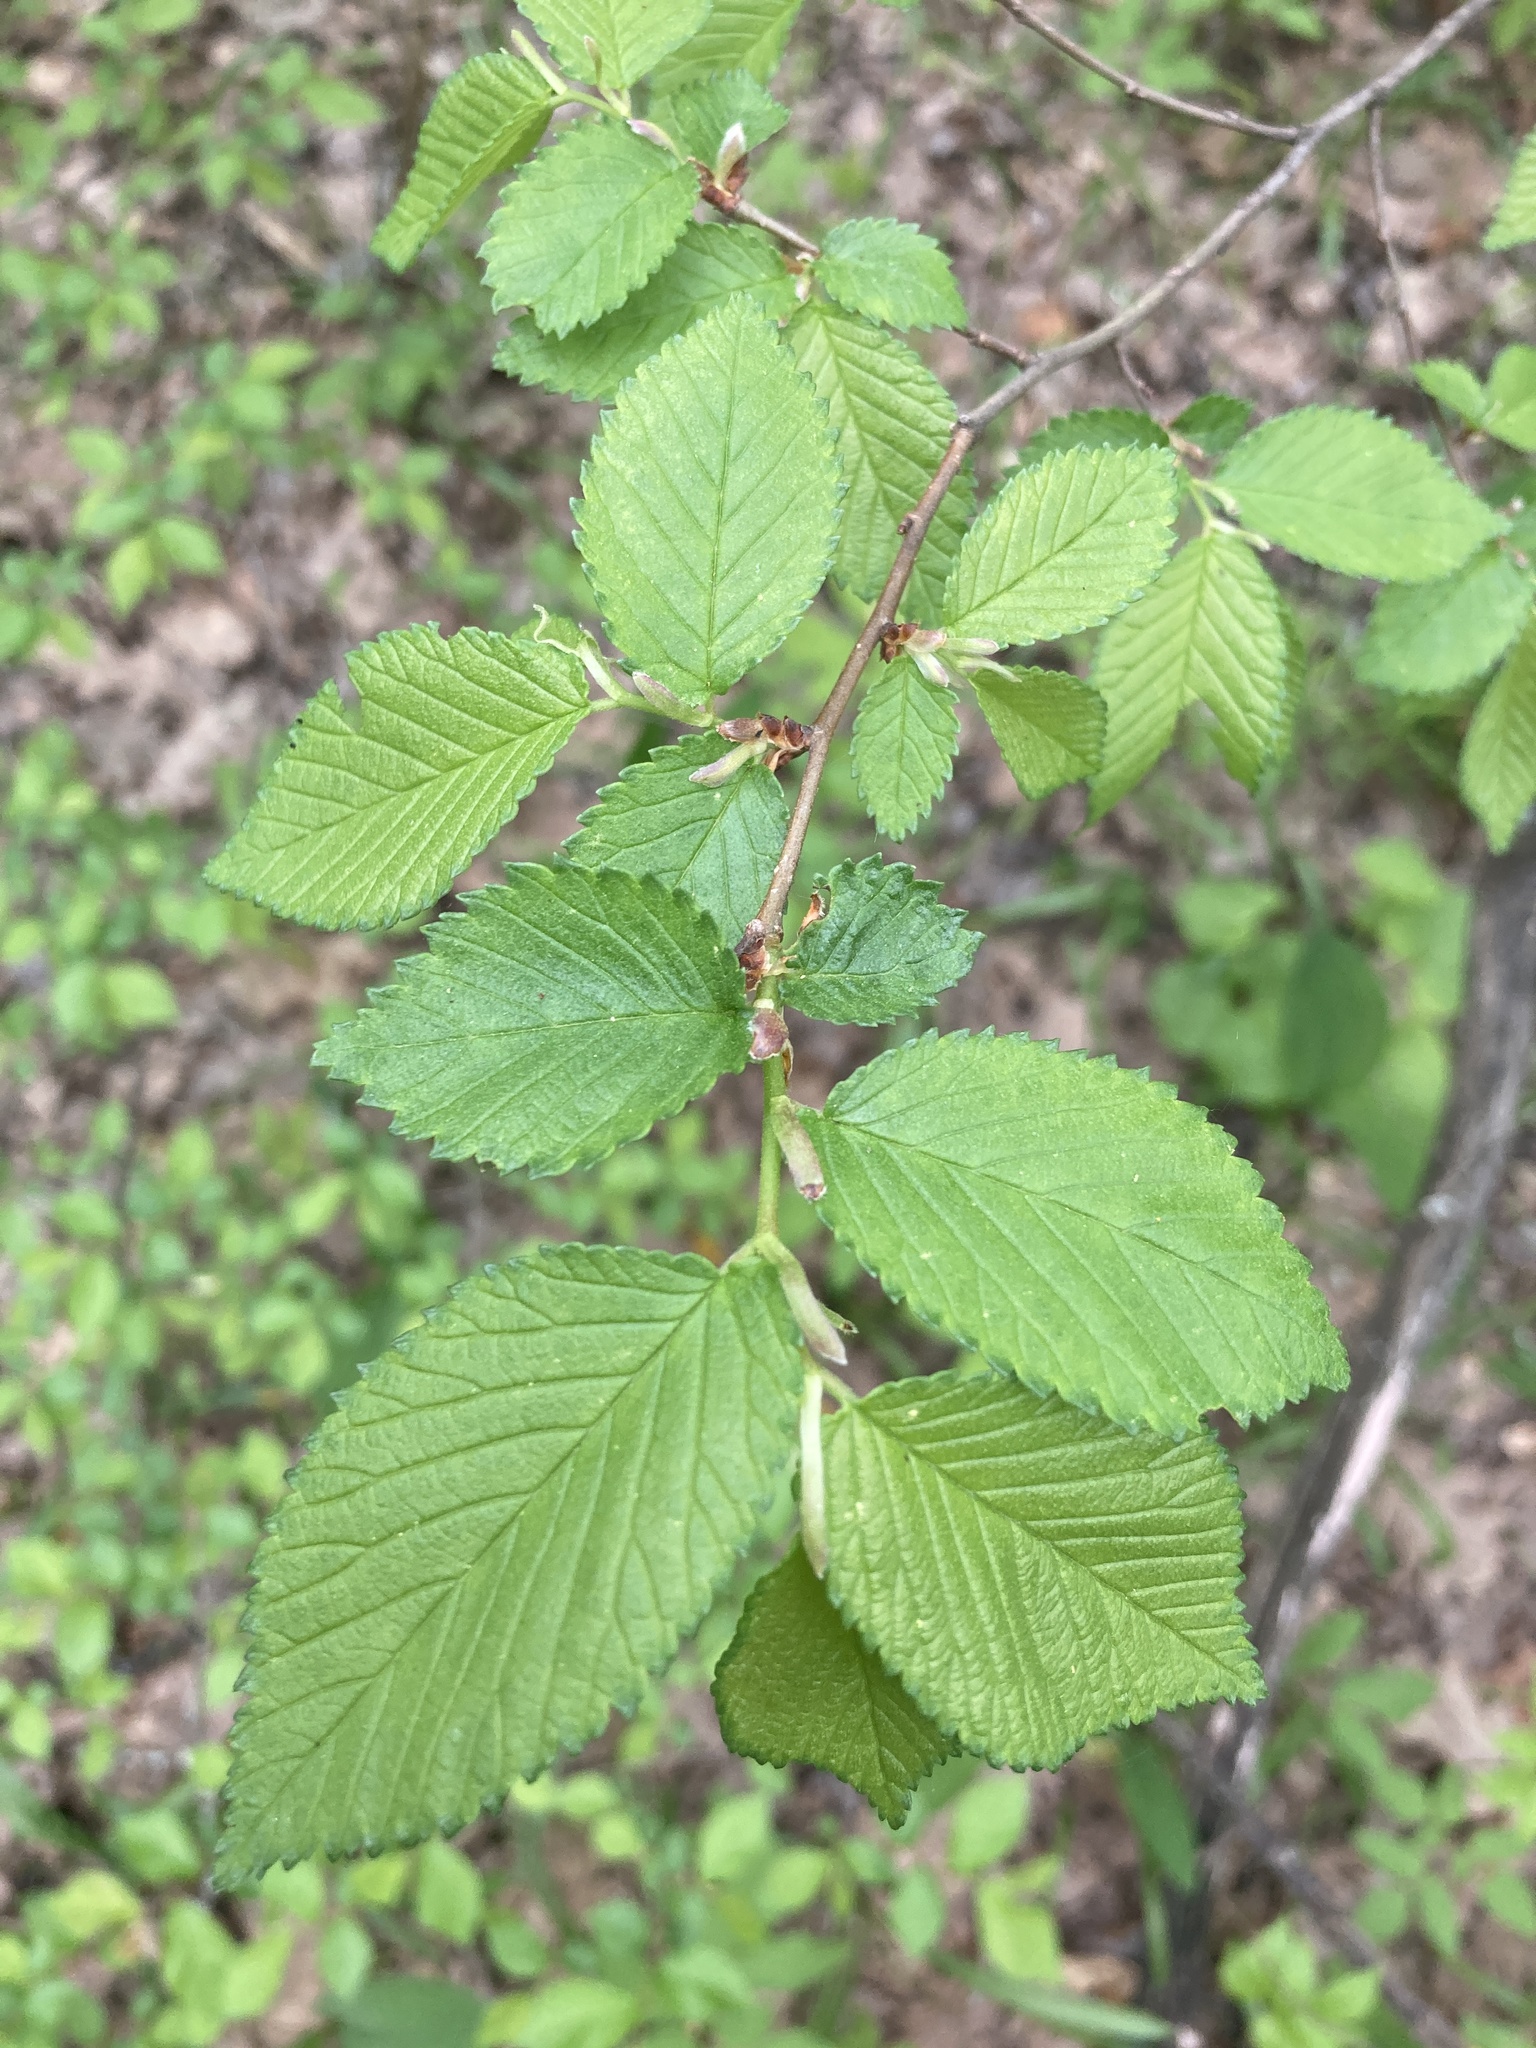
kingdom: Plantae
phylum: Tracheophyta
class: Magnoliopsida
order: Rosales
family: Ulmaceae
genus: Ulmus
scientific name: Ulmus minor
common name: Small-leaved elm
